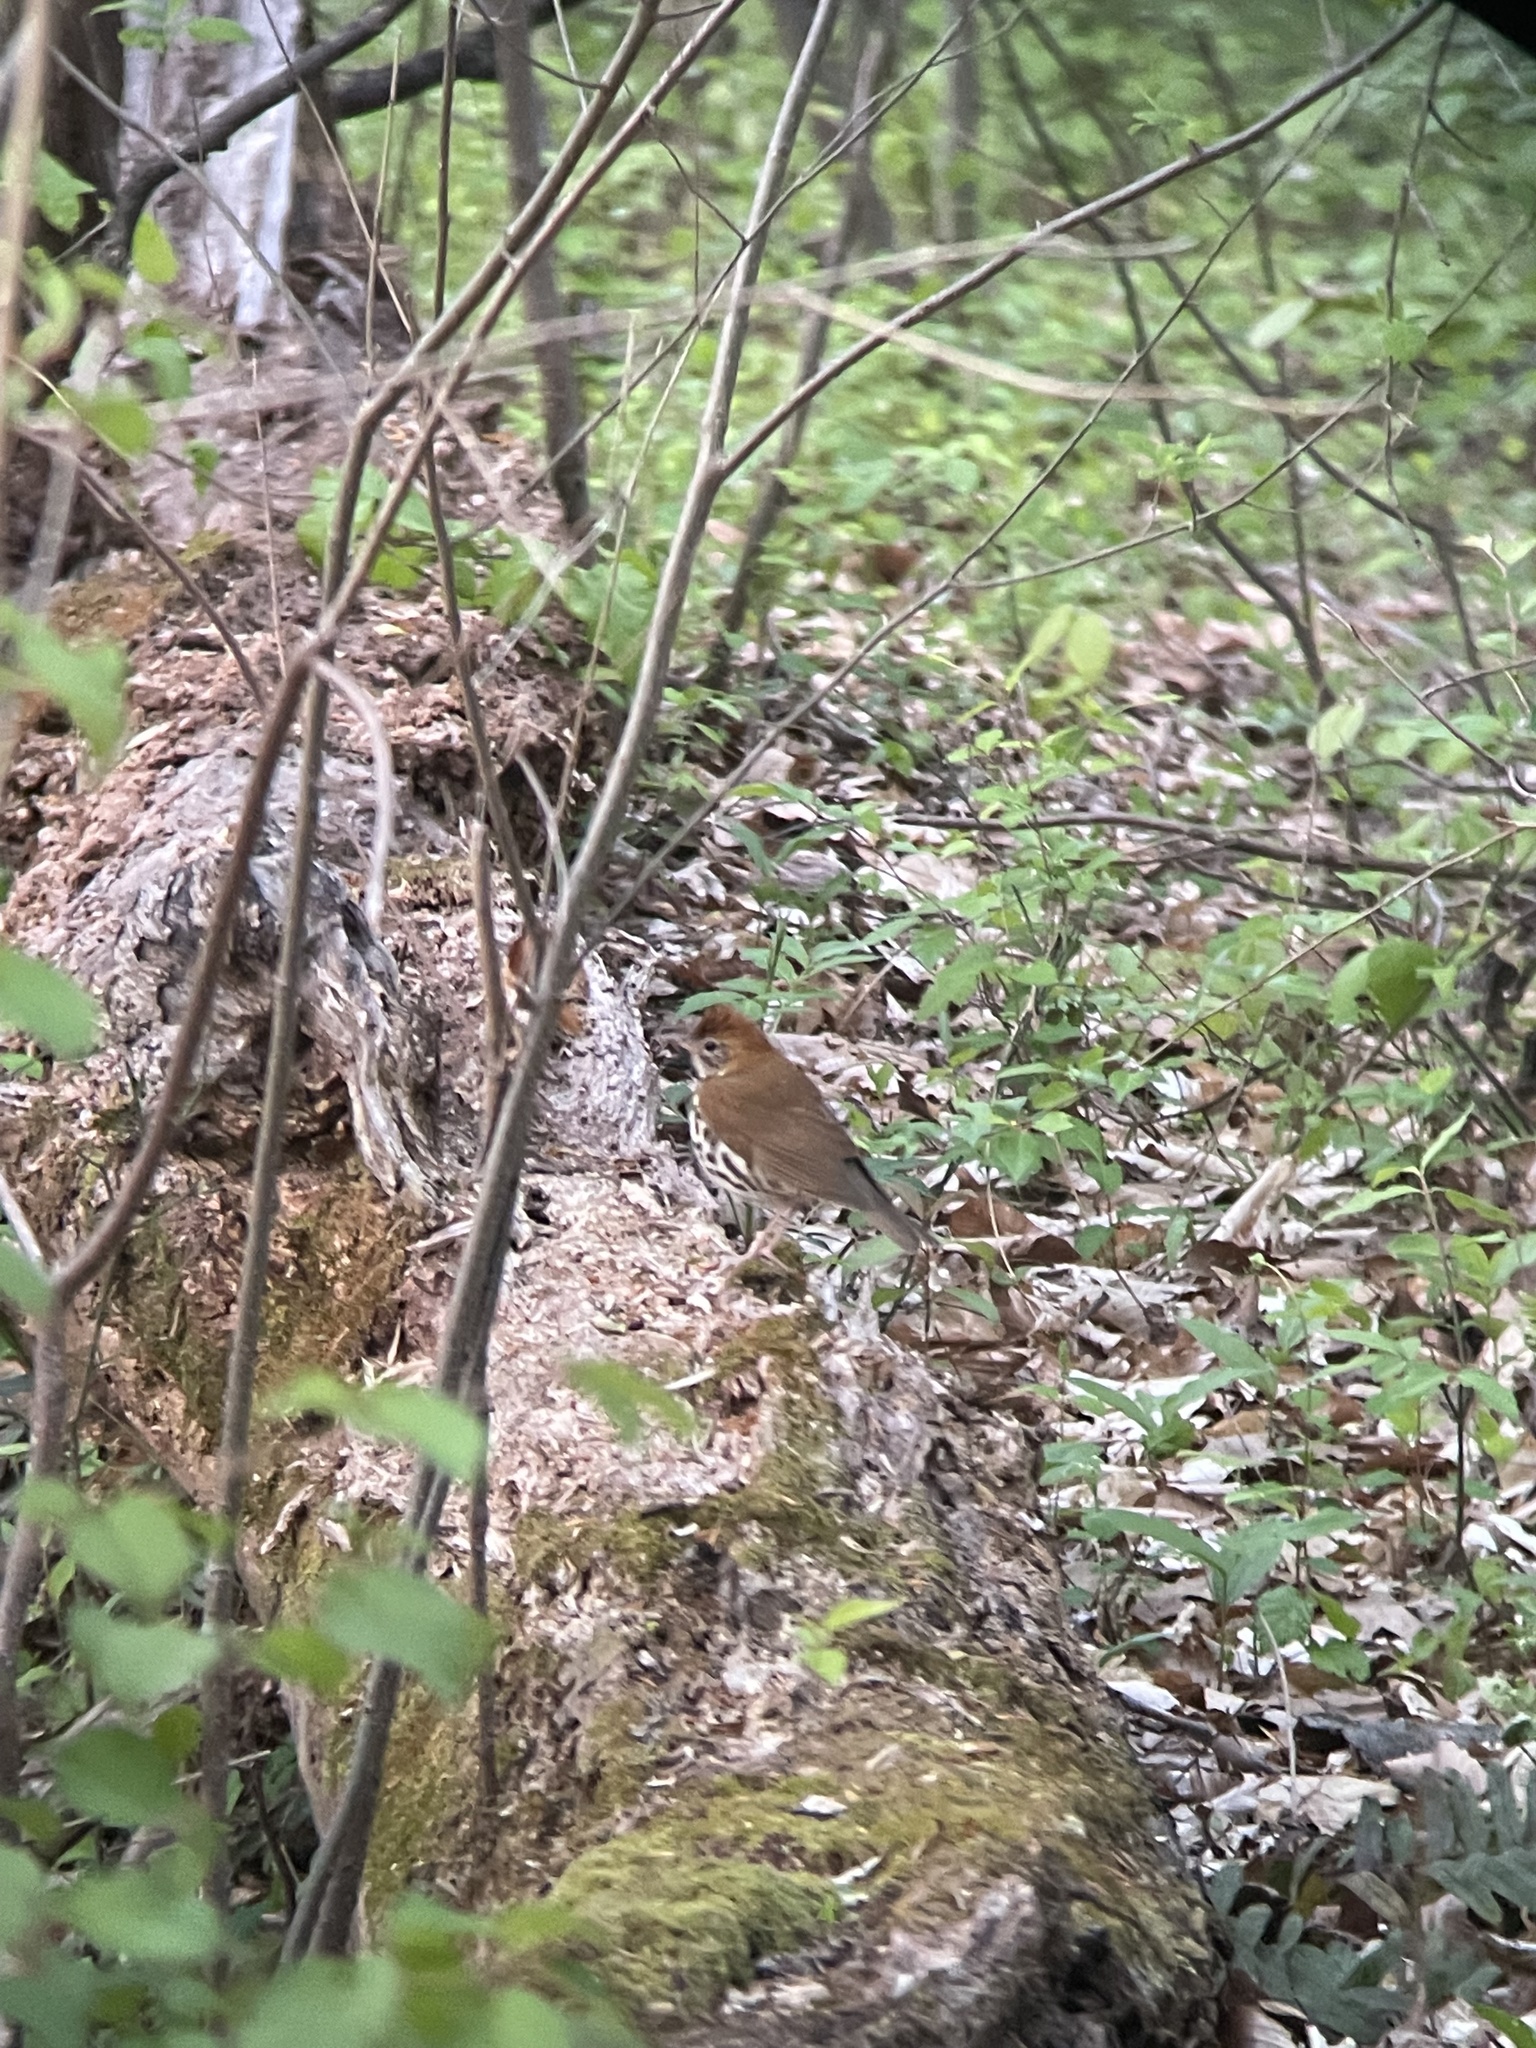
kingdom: Animalia
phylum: Chordata
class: Aves
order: Passeriformes
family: Turdidae
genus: Hylocichla
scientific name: Hylocichla mustelina
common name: Wood thrush
